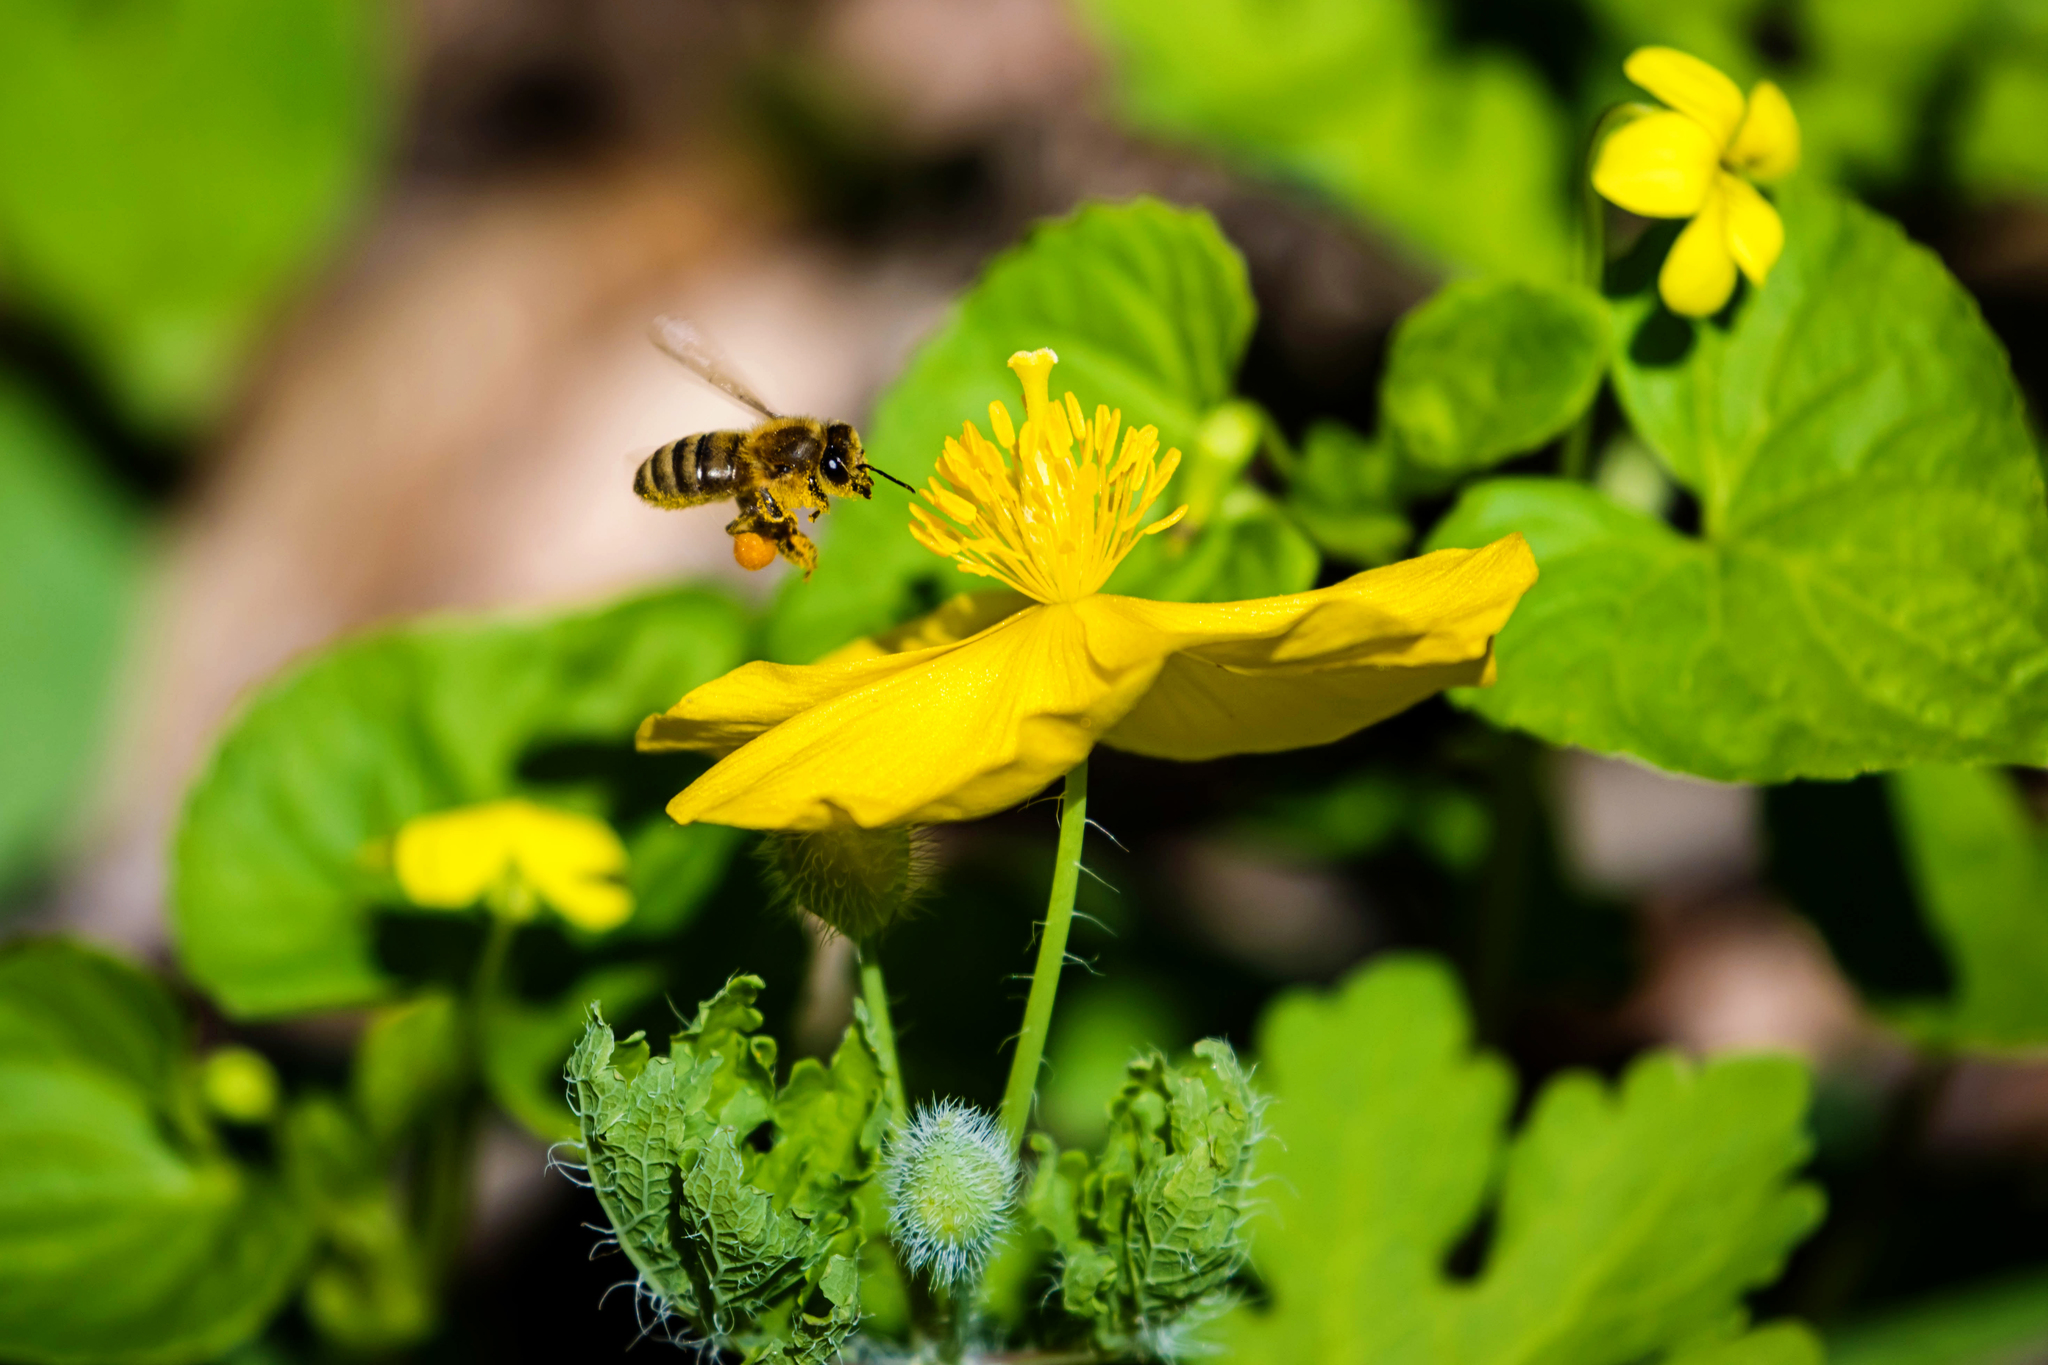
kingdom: Animalia
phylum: Arthropoda
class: Insecta
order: Hymenoptera
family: Apidae
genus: Apis
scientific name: Apis mellifera
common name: Honey bee
